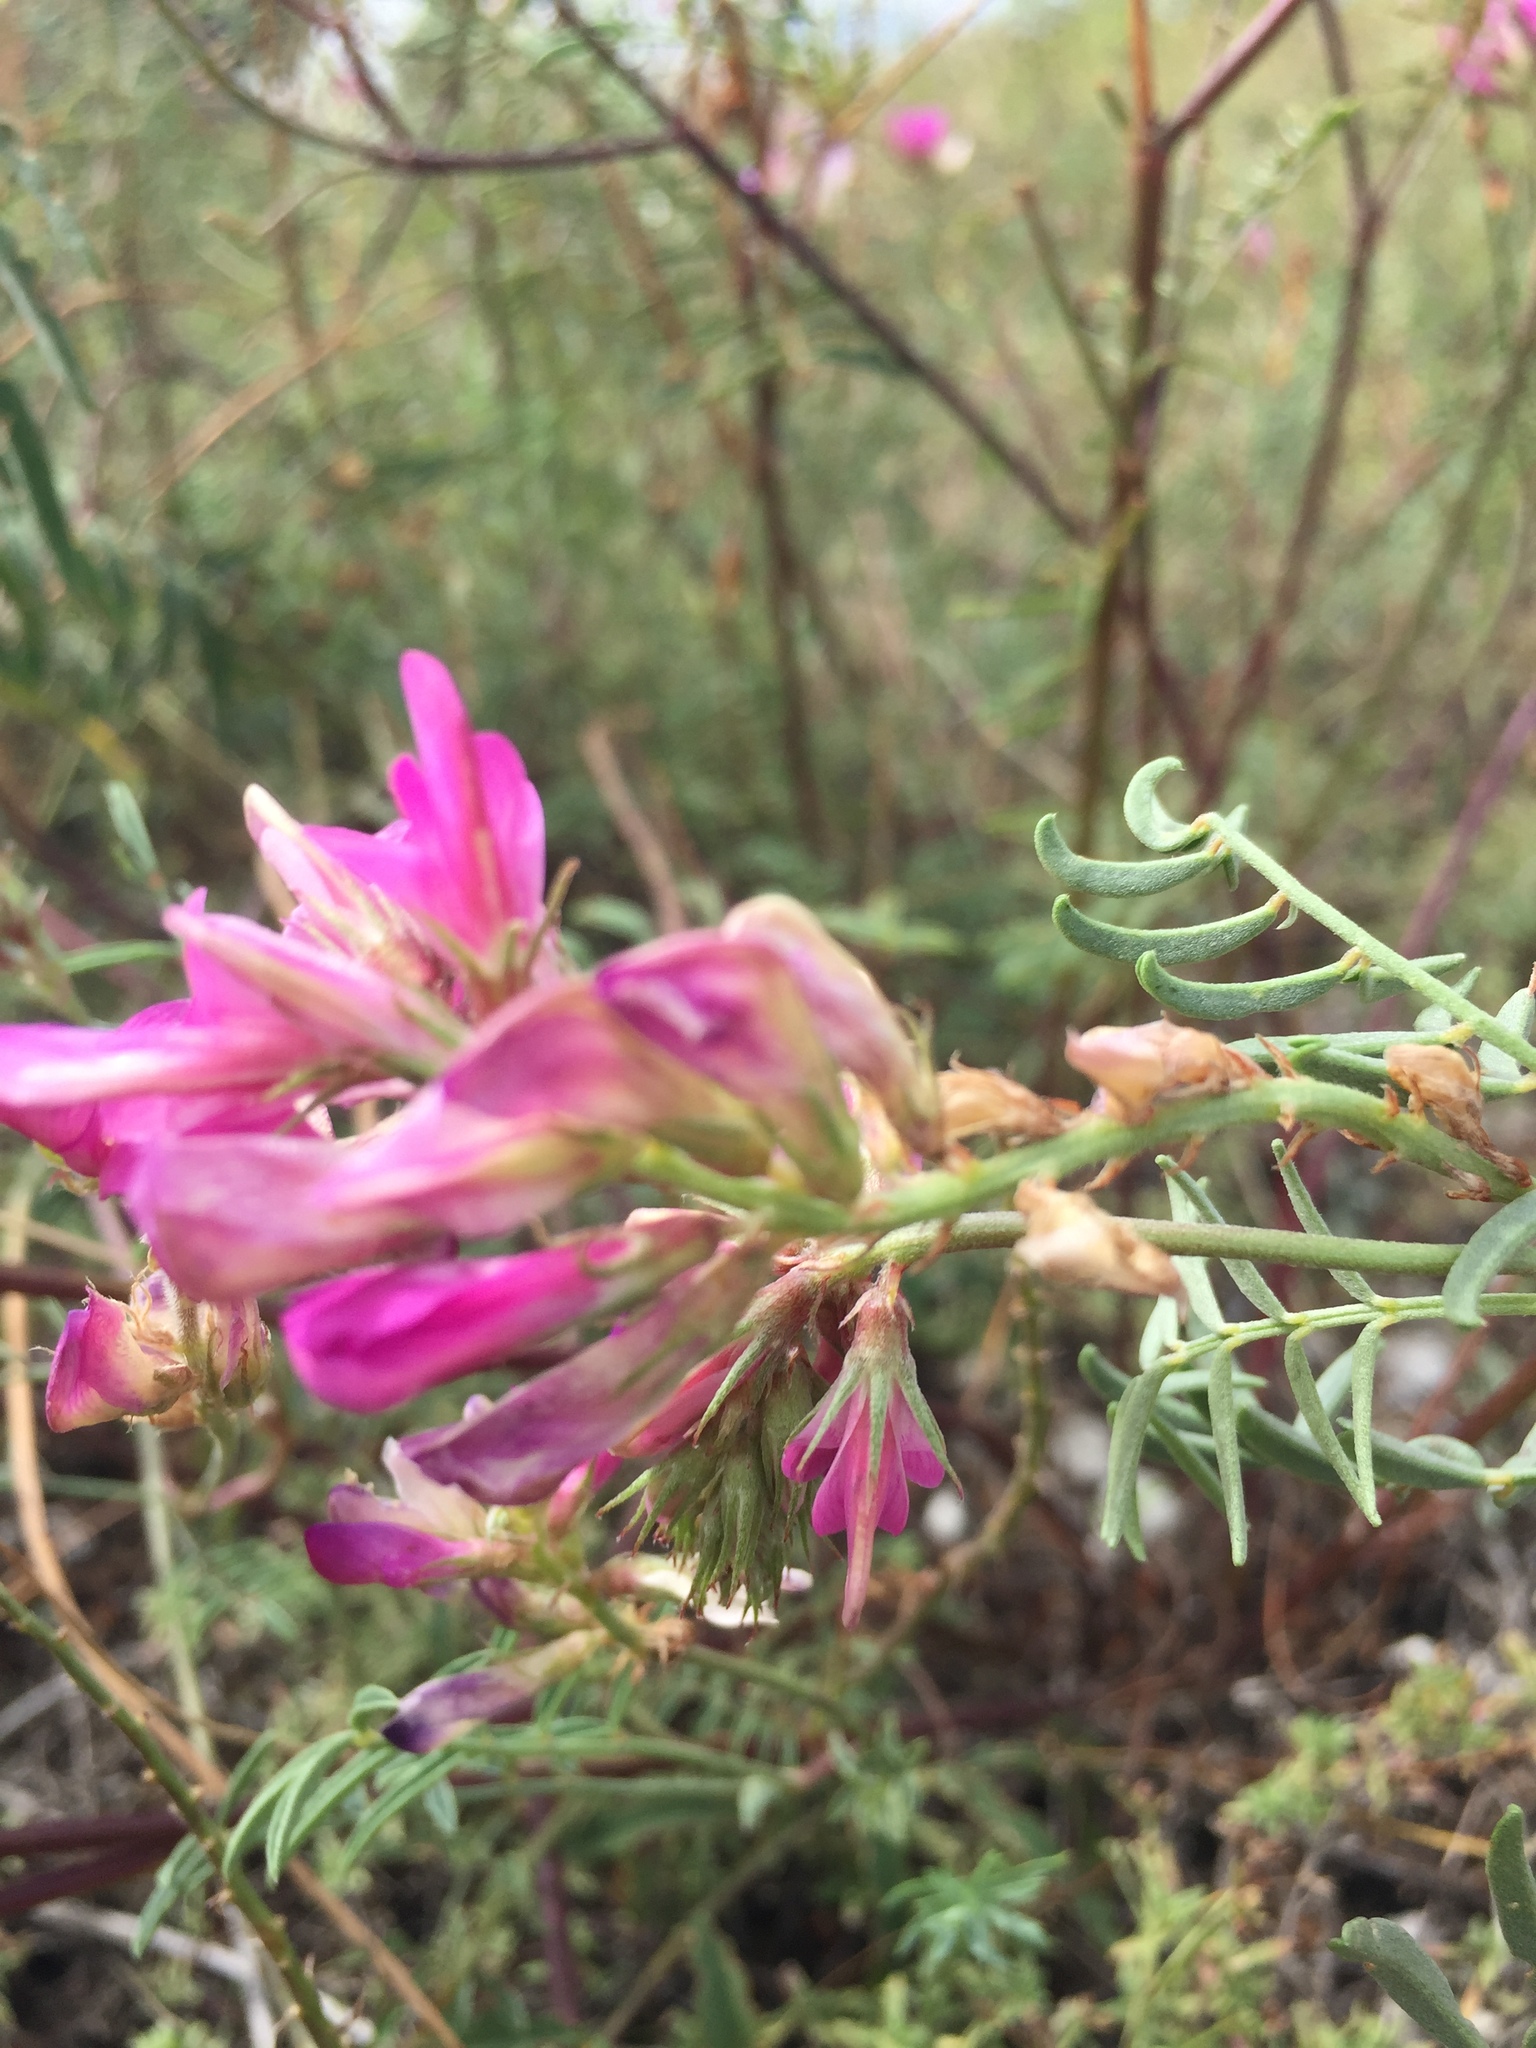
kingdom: Plantae
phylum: Tracheophyta
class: Magnoliopsida
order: Fabales
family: Fabaceae
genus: Hedysarum
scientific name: Hedysarum ucrainicum
